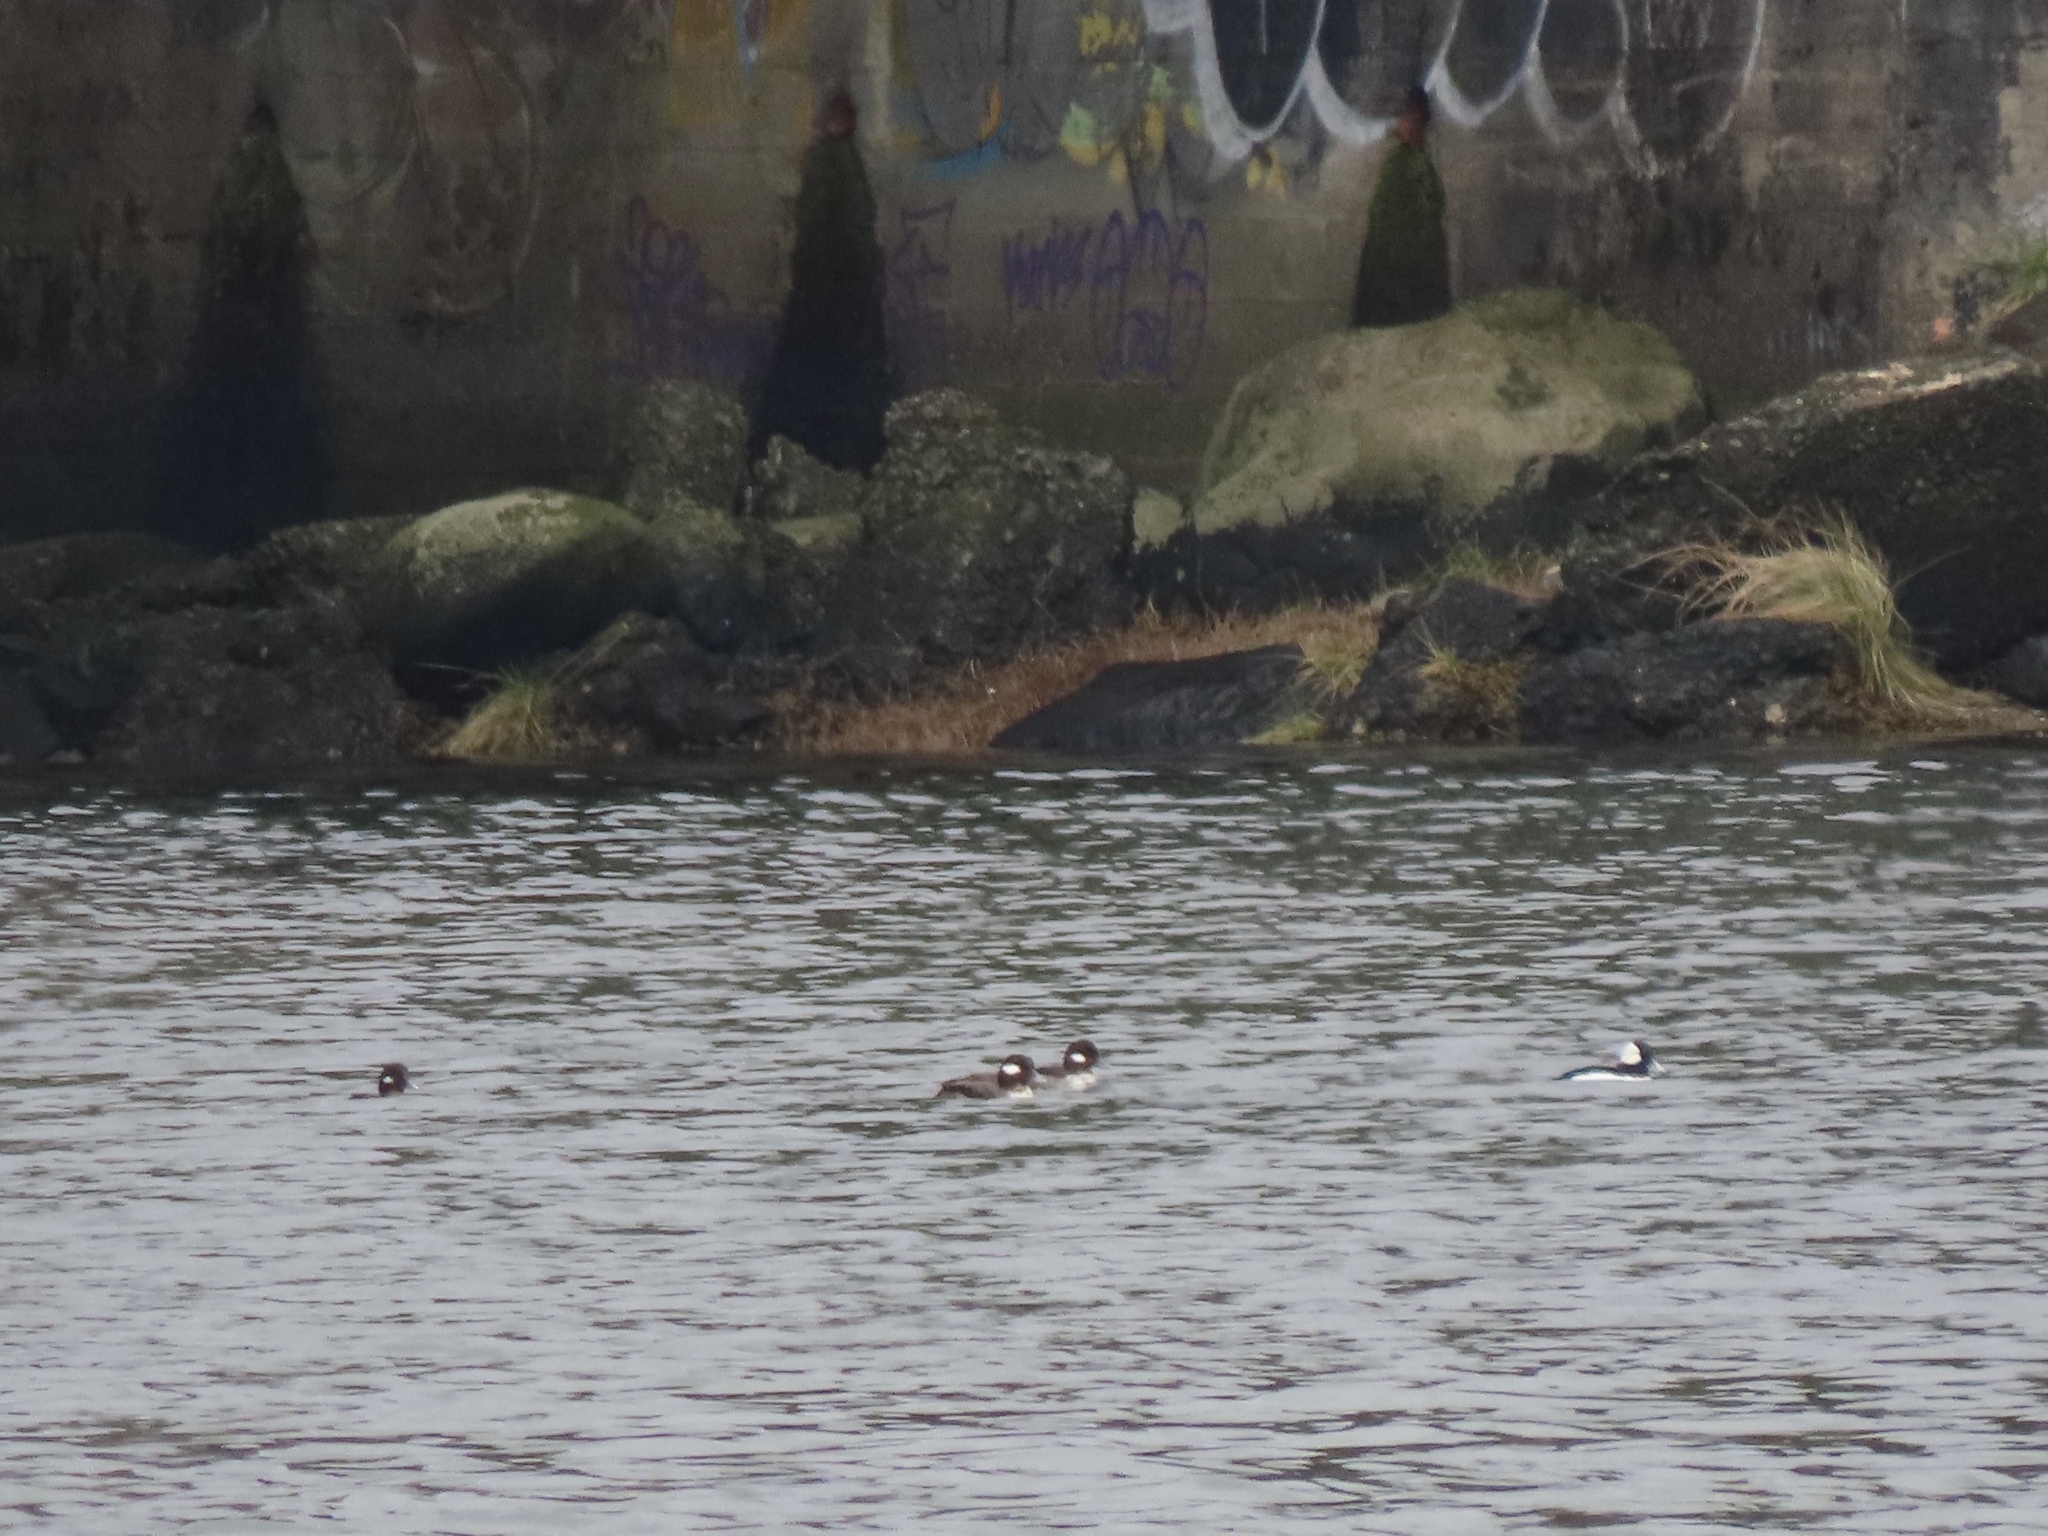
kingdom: Animalia
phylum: Chordata
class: Aves
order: Anseriformes
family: Anatidae
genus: Bucephala
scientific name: Bucephala albeola
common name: Bufflehead
